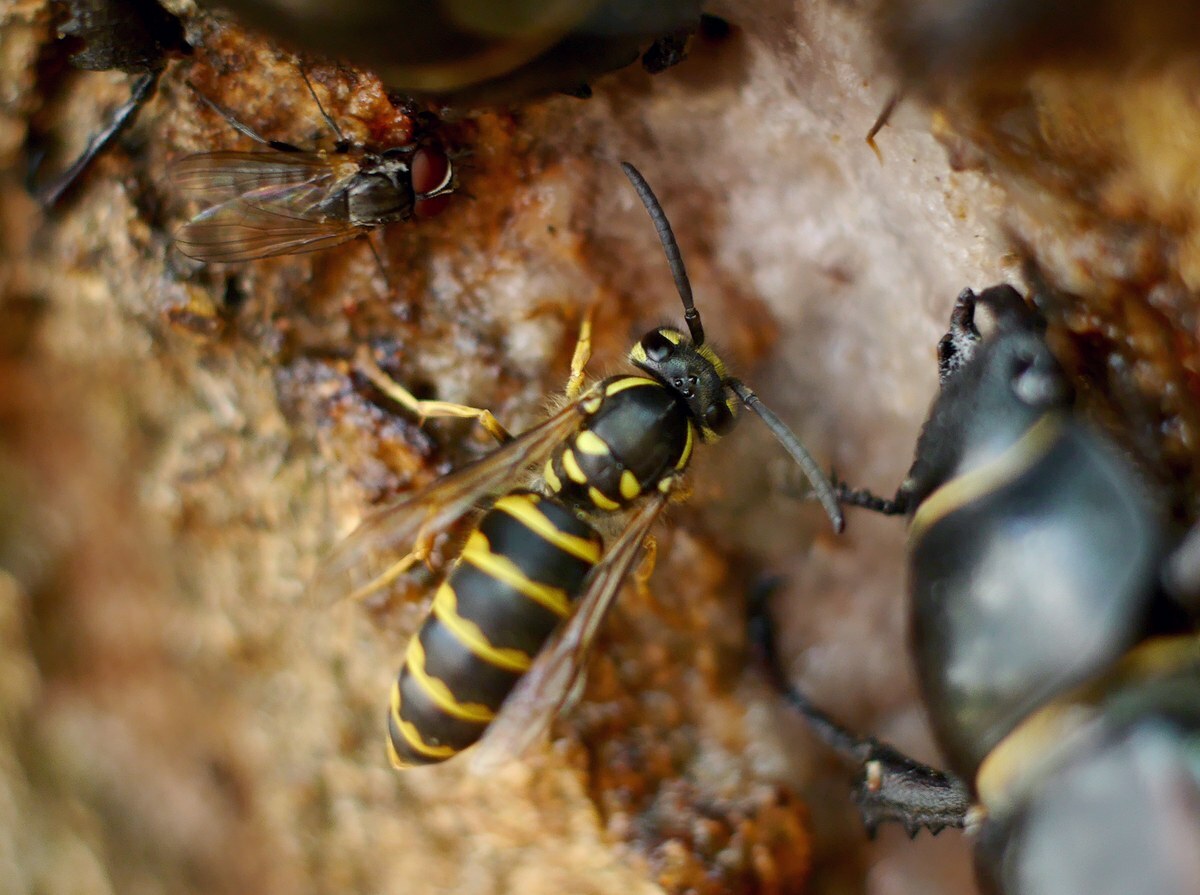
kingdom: Animalia
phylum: Arthropoda
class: Insecta
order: Hymenoptera
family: Vespidae
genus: Vespula
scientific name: Vespula vulgaris
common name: Common wasp
